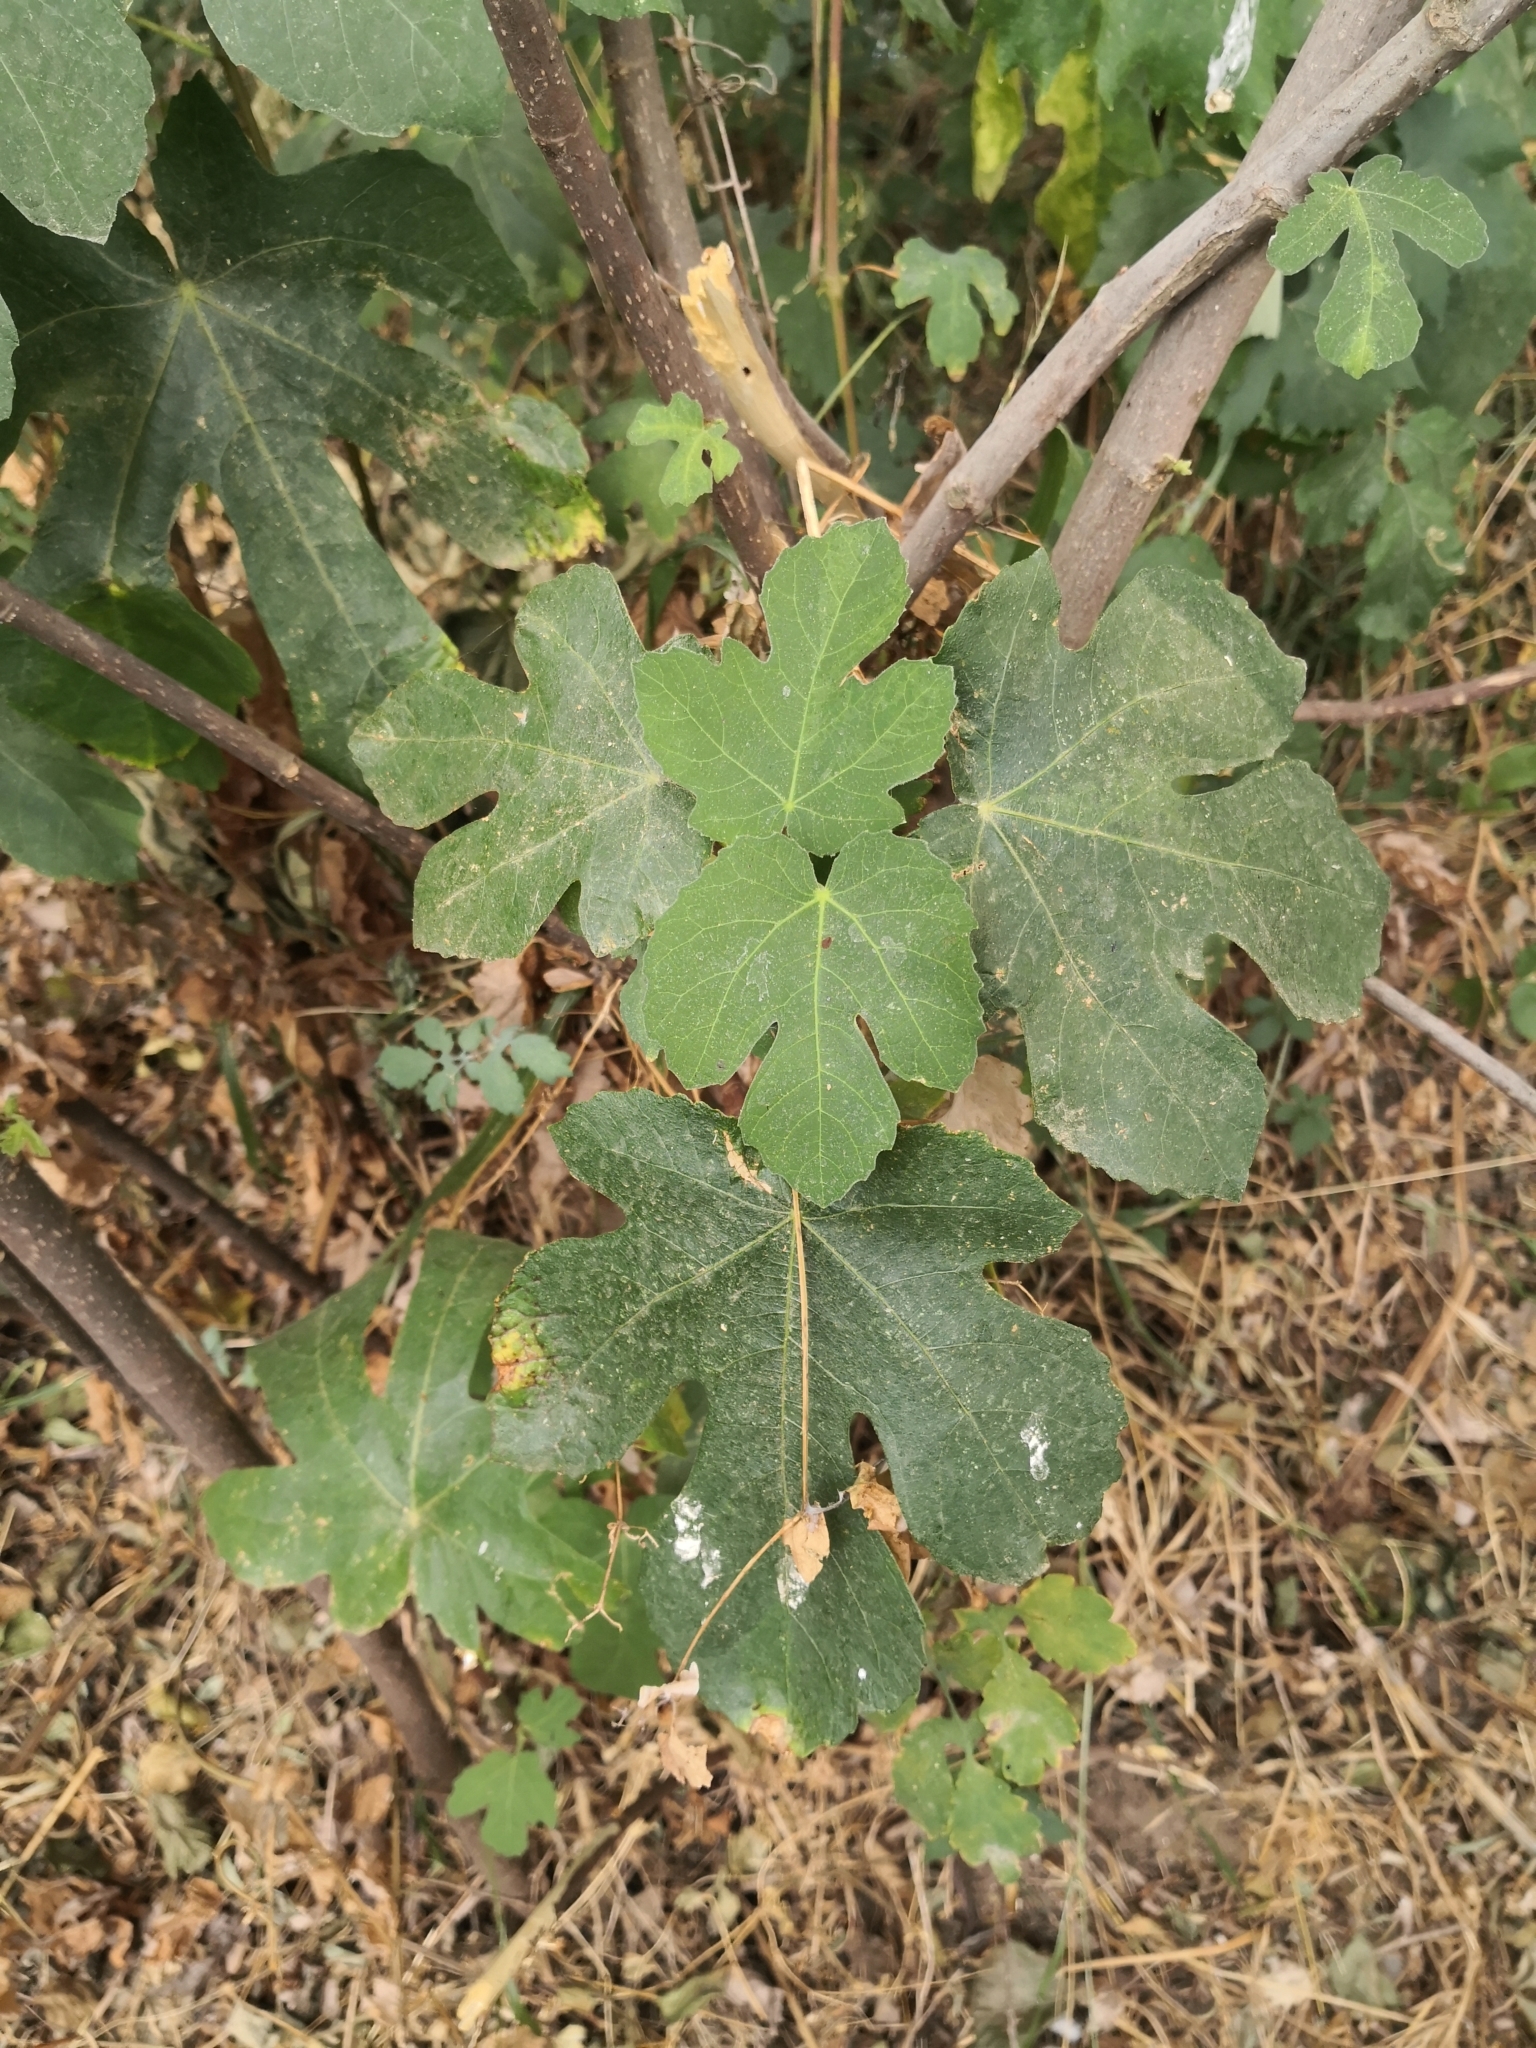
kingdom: Plantae
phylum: Tracheophyta
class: Magnoliopsida
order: Rosales
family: Moraceae
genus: Ficus
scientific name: Ficus carica
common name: Fig
